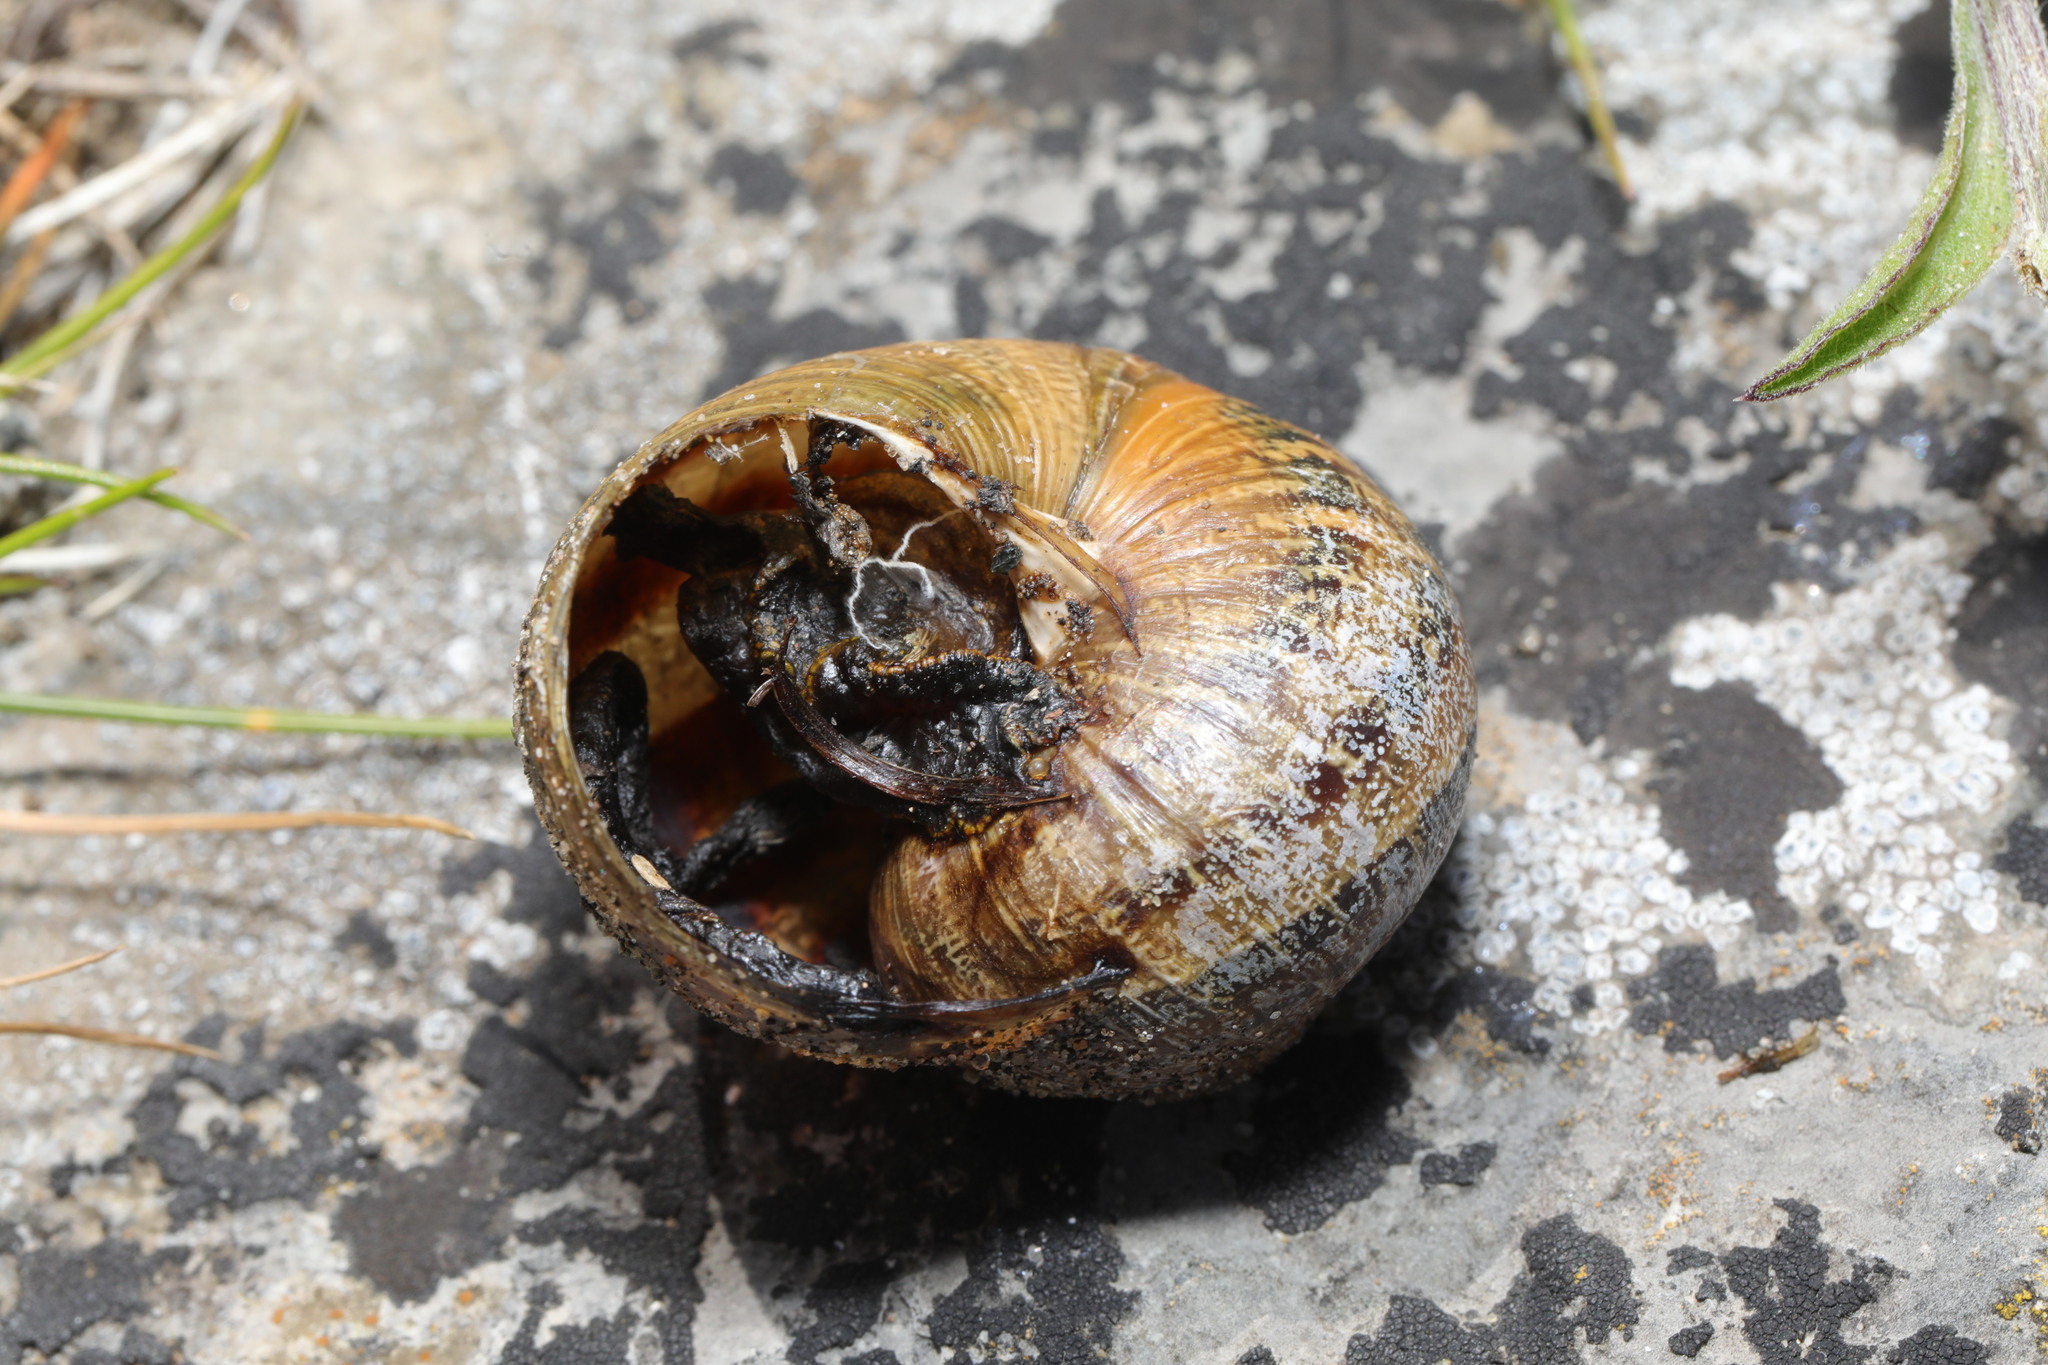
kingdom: Animalia
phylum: Mollusca
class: Gastropoda
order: Stylommatophora
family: Helicidae
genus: Cornu
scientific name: Cornu aspersum
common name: Brown garden snail
